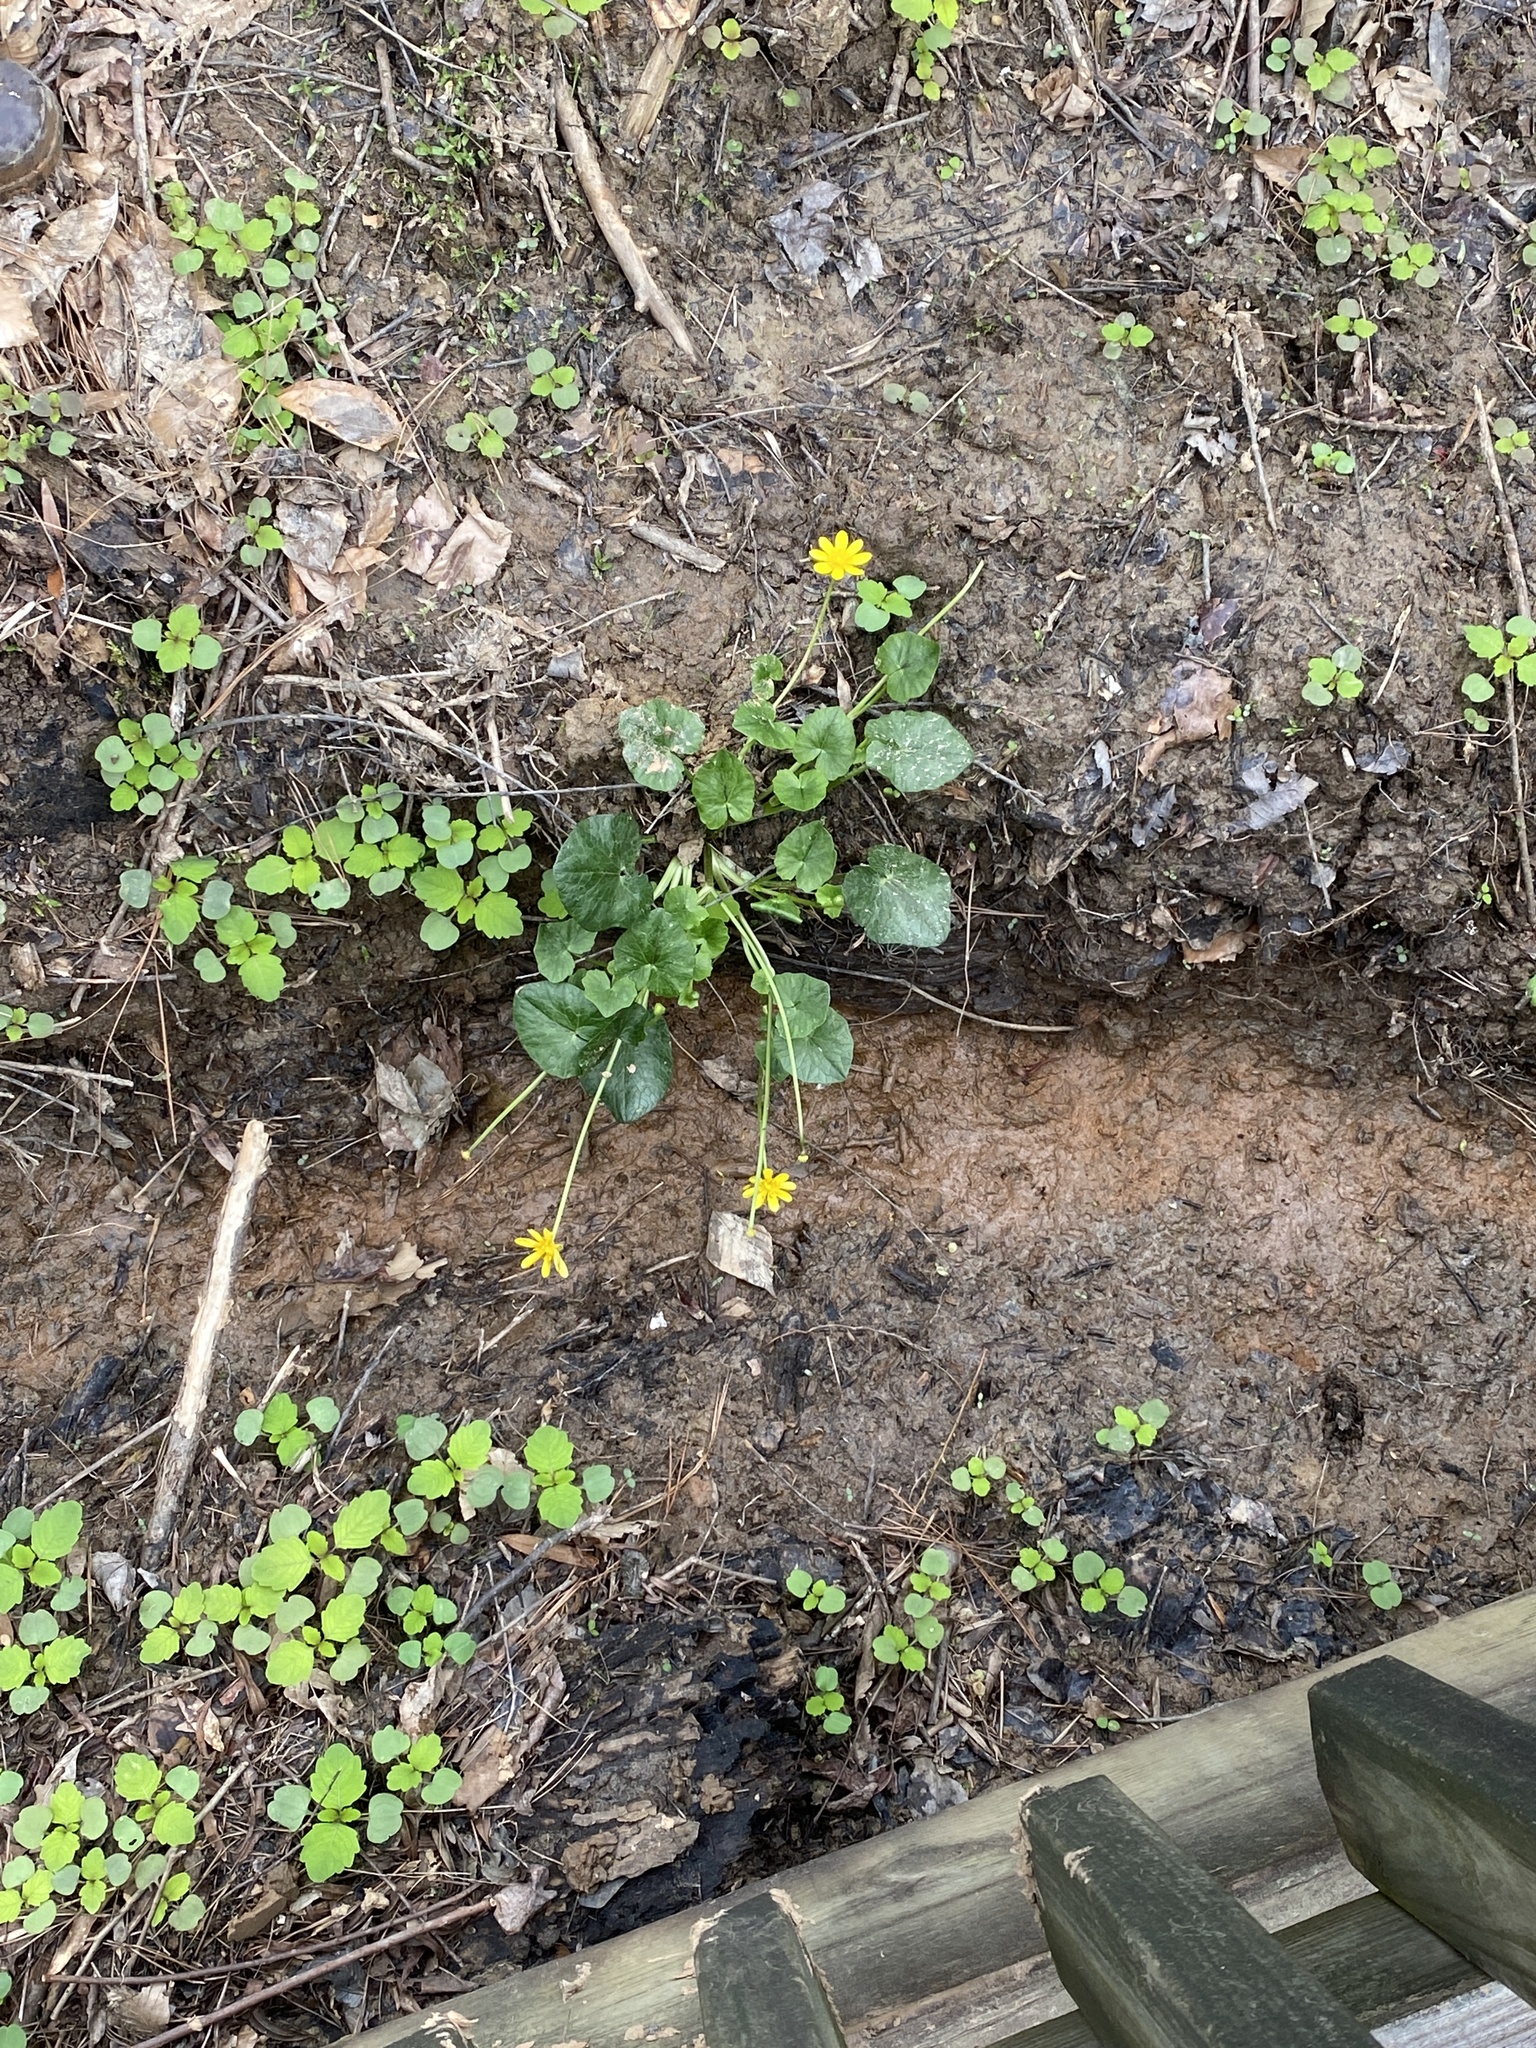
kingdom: Plantae
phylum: Tracheophyta
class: Magnoliopsida
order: Ranunculales
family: Ranunculaceae
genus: Ficaria
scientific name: Ficaria verna
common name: Lesser celandine
